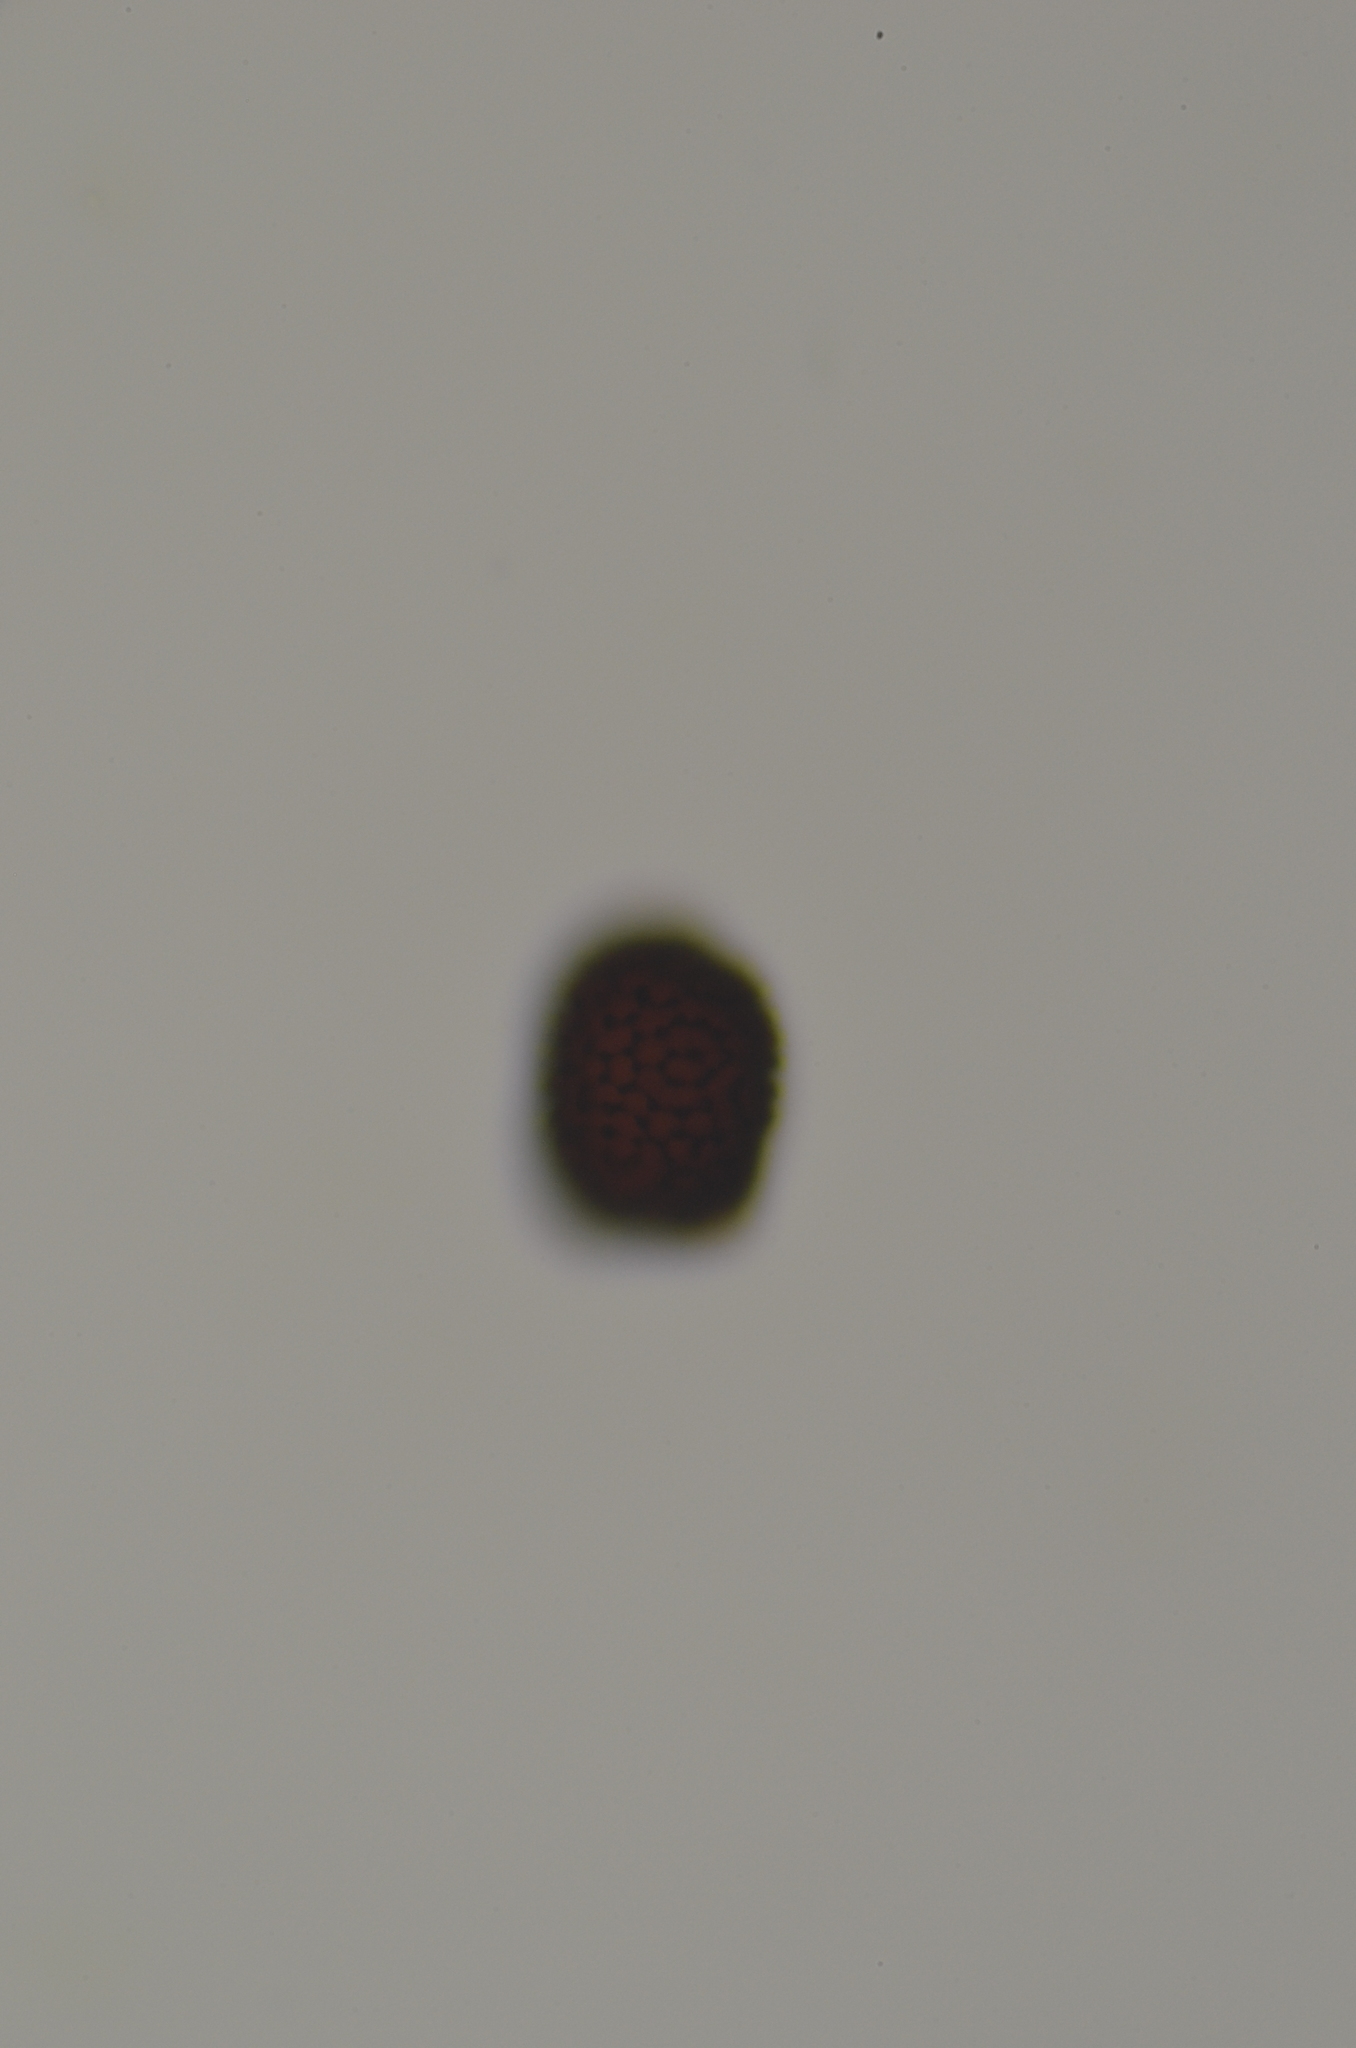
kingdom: Plantae
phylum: Marchantiophyta
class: Marchantiopsida
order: Marchantiales
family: Ricciaceae
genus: Riccia
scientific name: Riccia sorocarpa
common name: Common crystalwort
